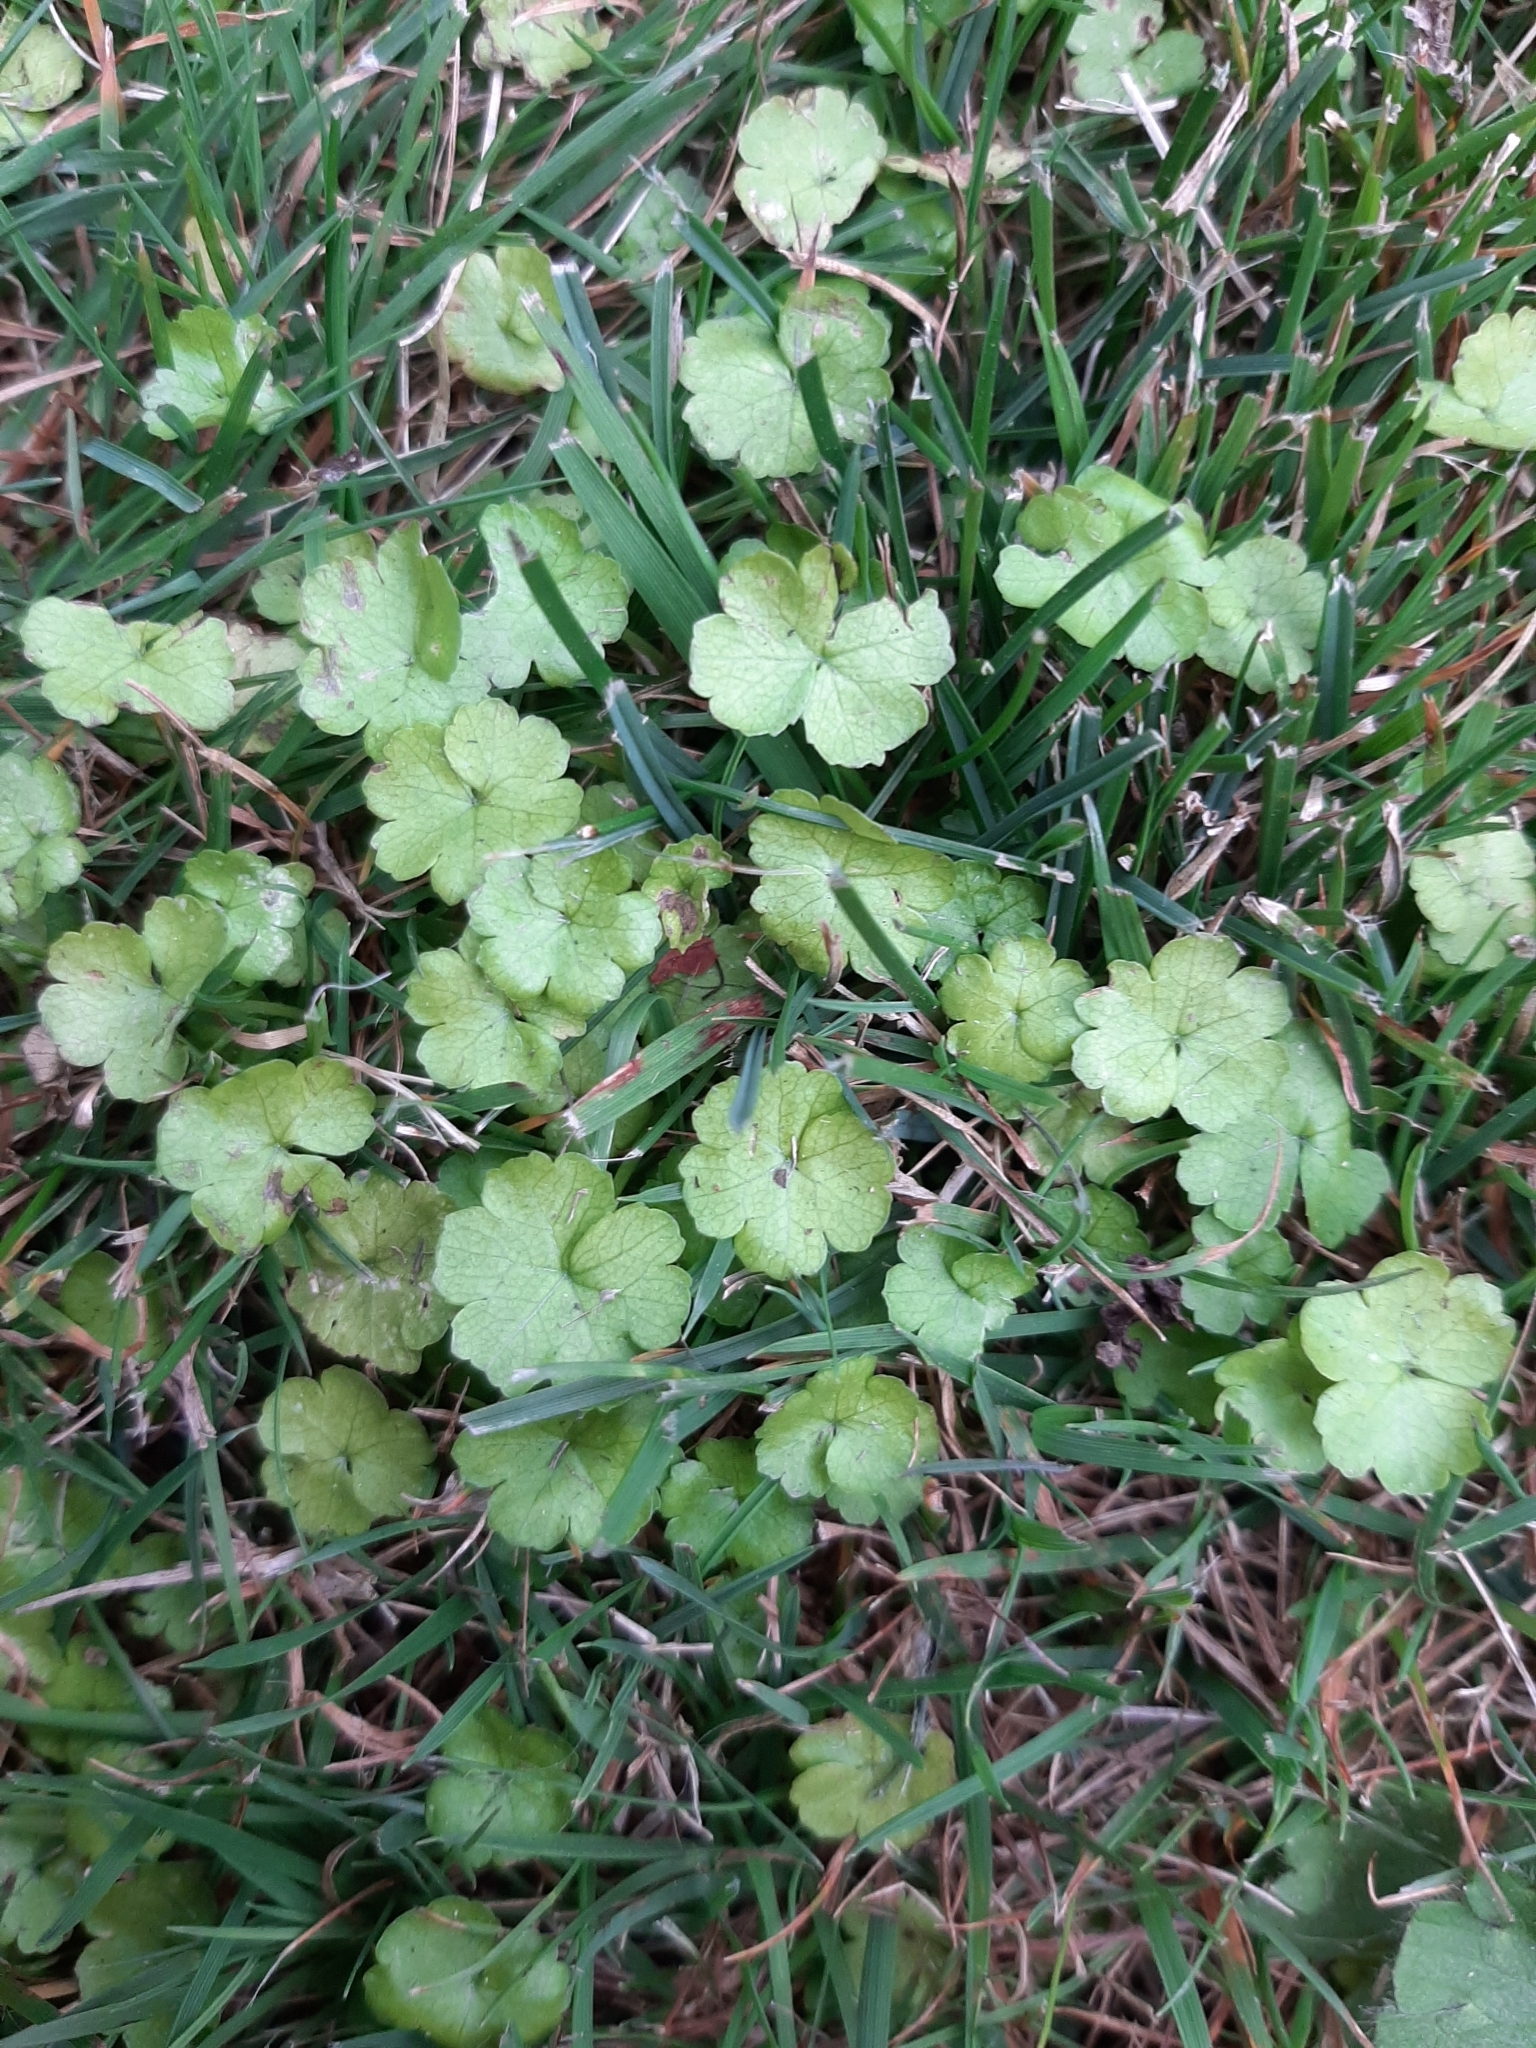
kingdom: Plantae
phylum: Tracheophyta
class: Magnoliopsida
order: Apiales
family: Araliaceae
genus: Hydrocotyle
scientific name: Hydrocotyle heteromeria
